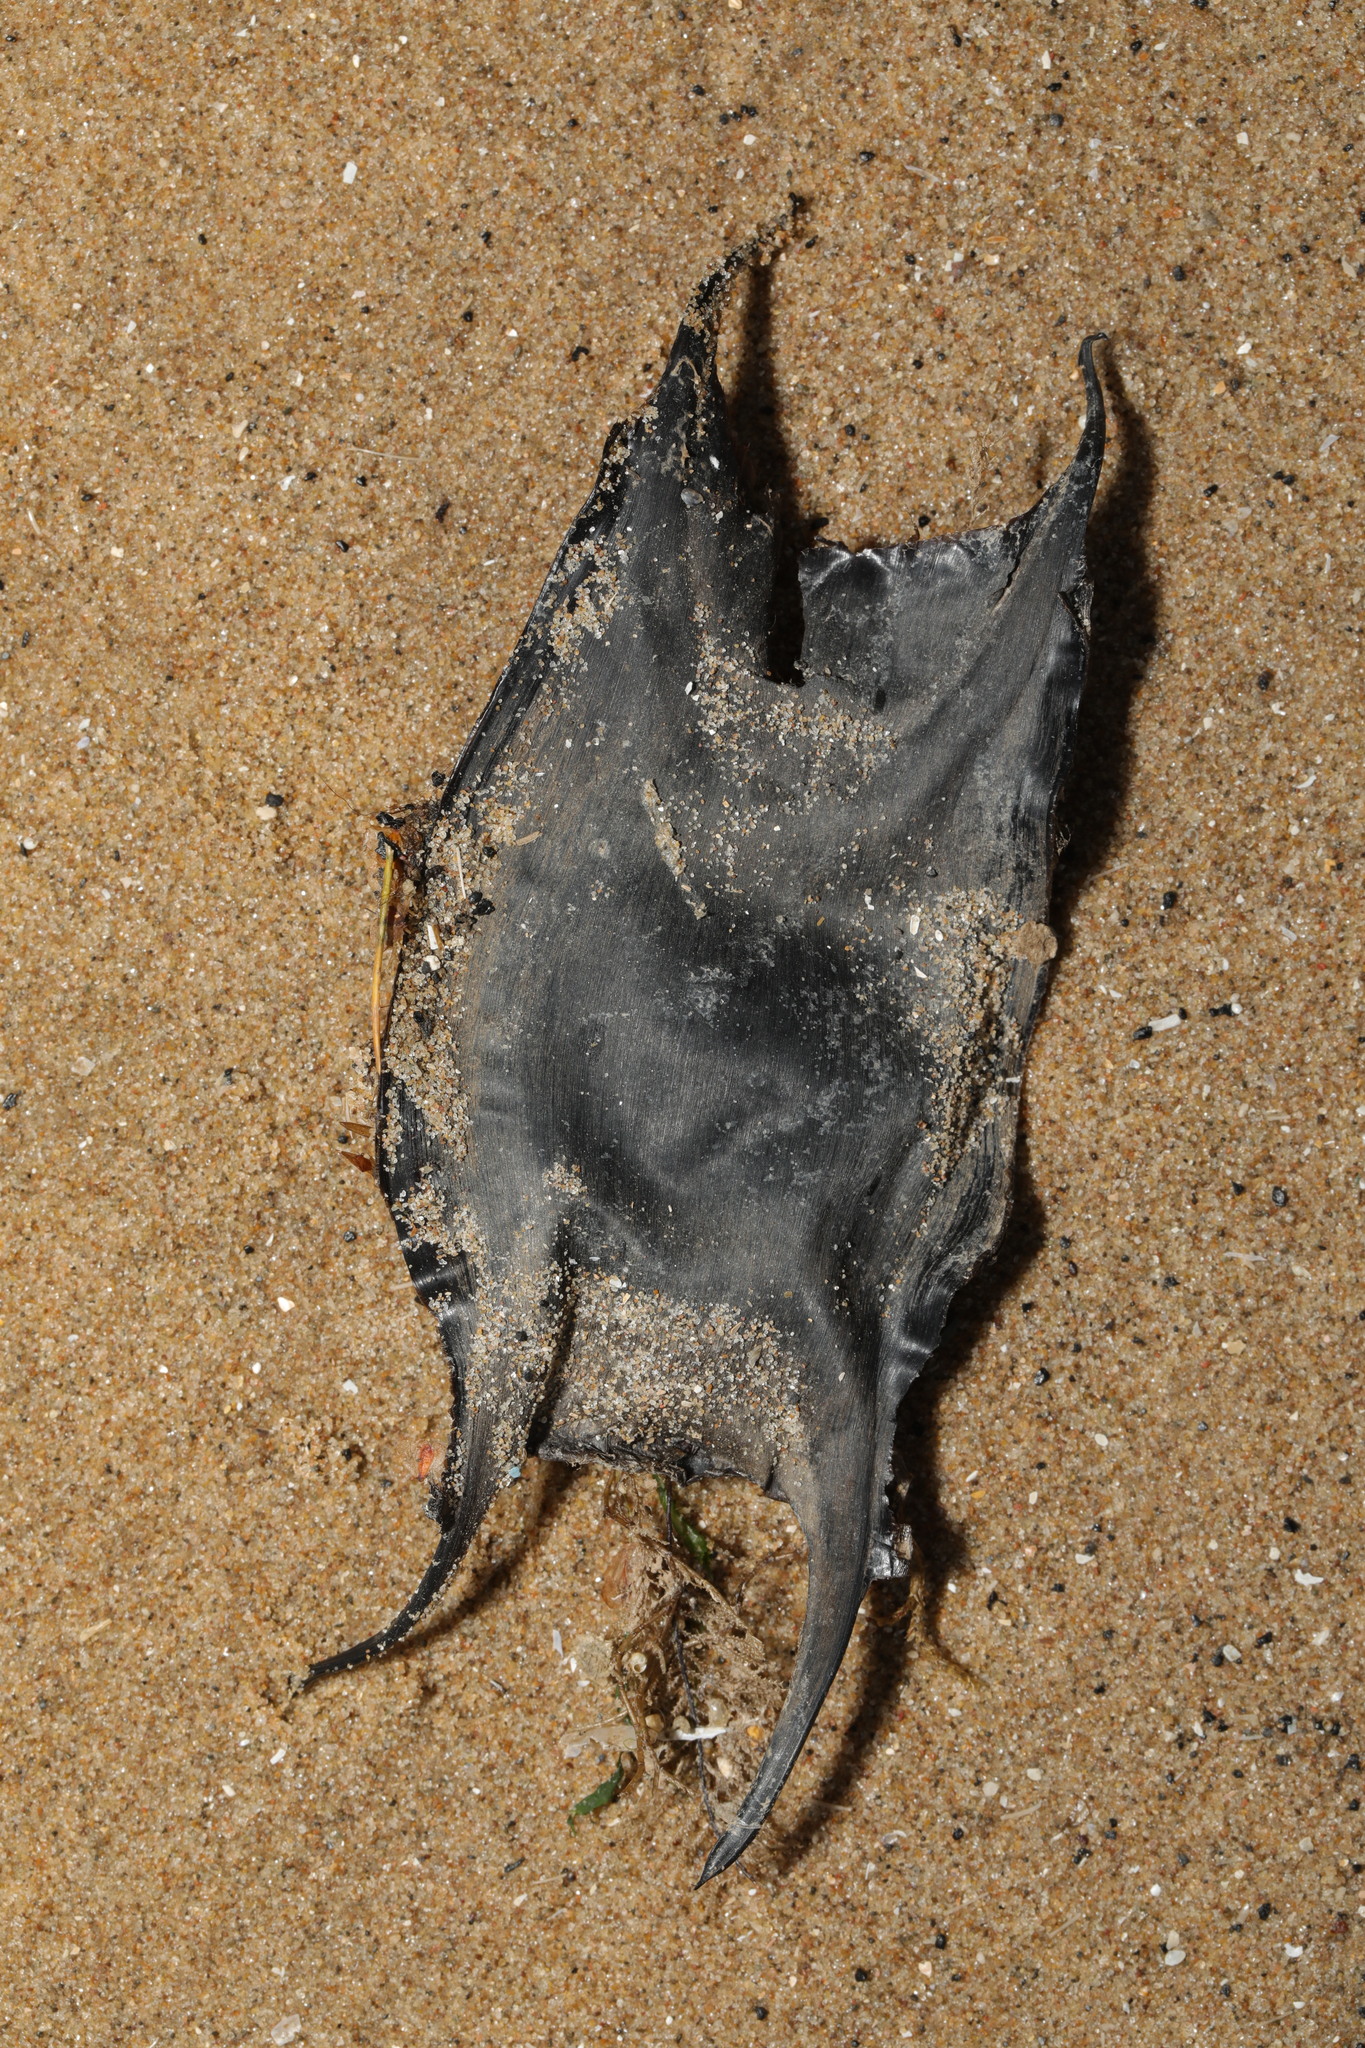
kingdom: Animalia
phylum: Chordata
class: Elasmobranchii
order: Rajiformes
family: Rajidae
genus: Raja
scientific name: Raja clavata
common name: Thornback ray
